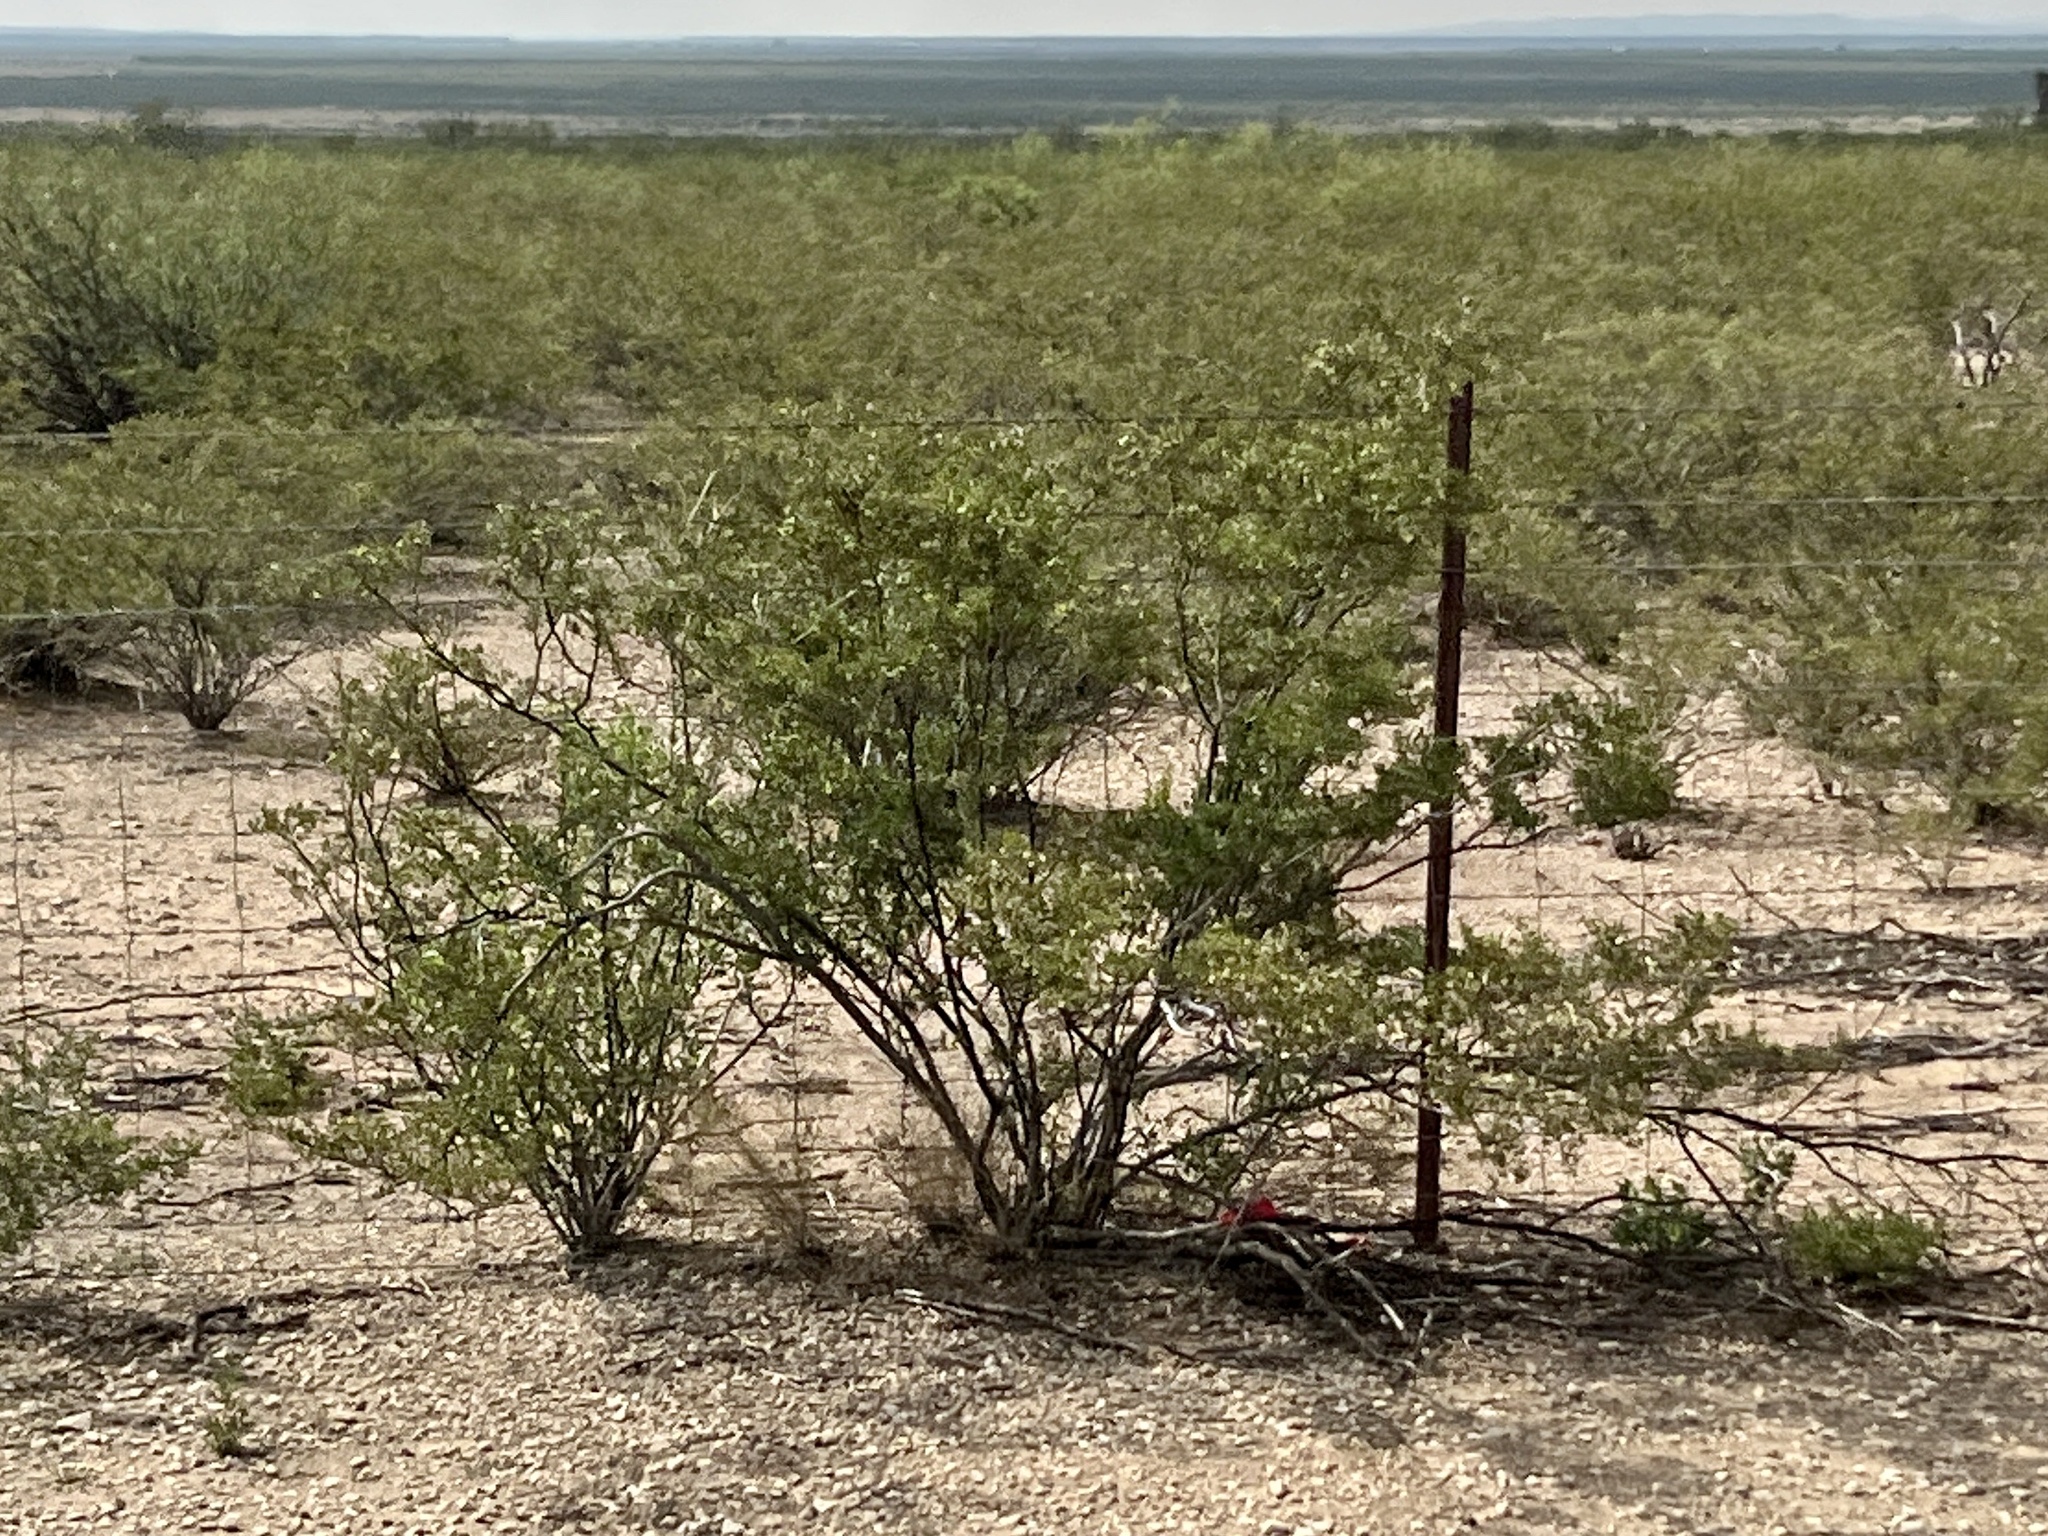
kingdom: Plantae
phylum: Tracheophyta
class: Magnoliopsida
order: Zygophyllales
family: Zygophyllaceae
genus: Larrea
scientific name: Larrea tridentata
